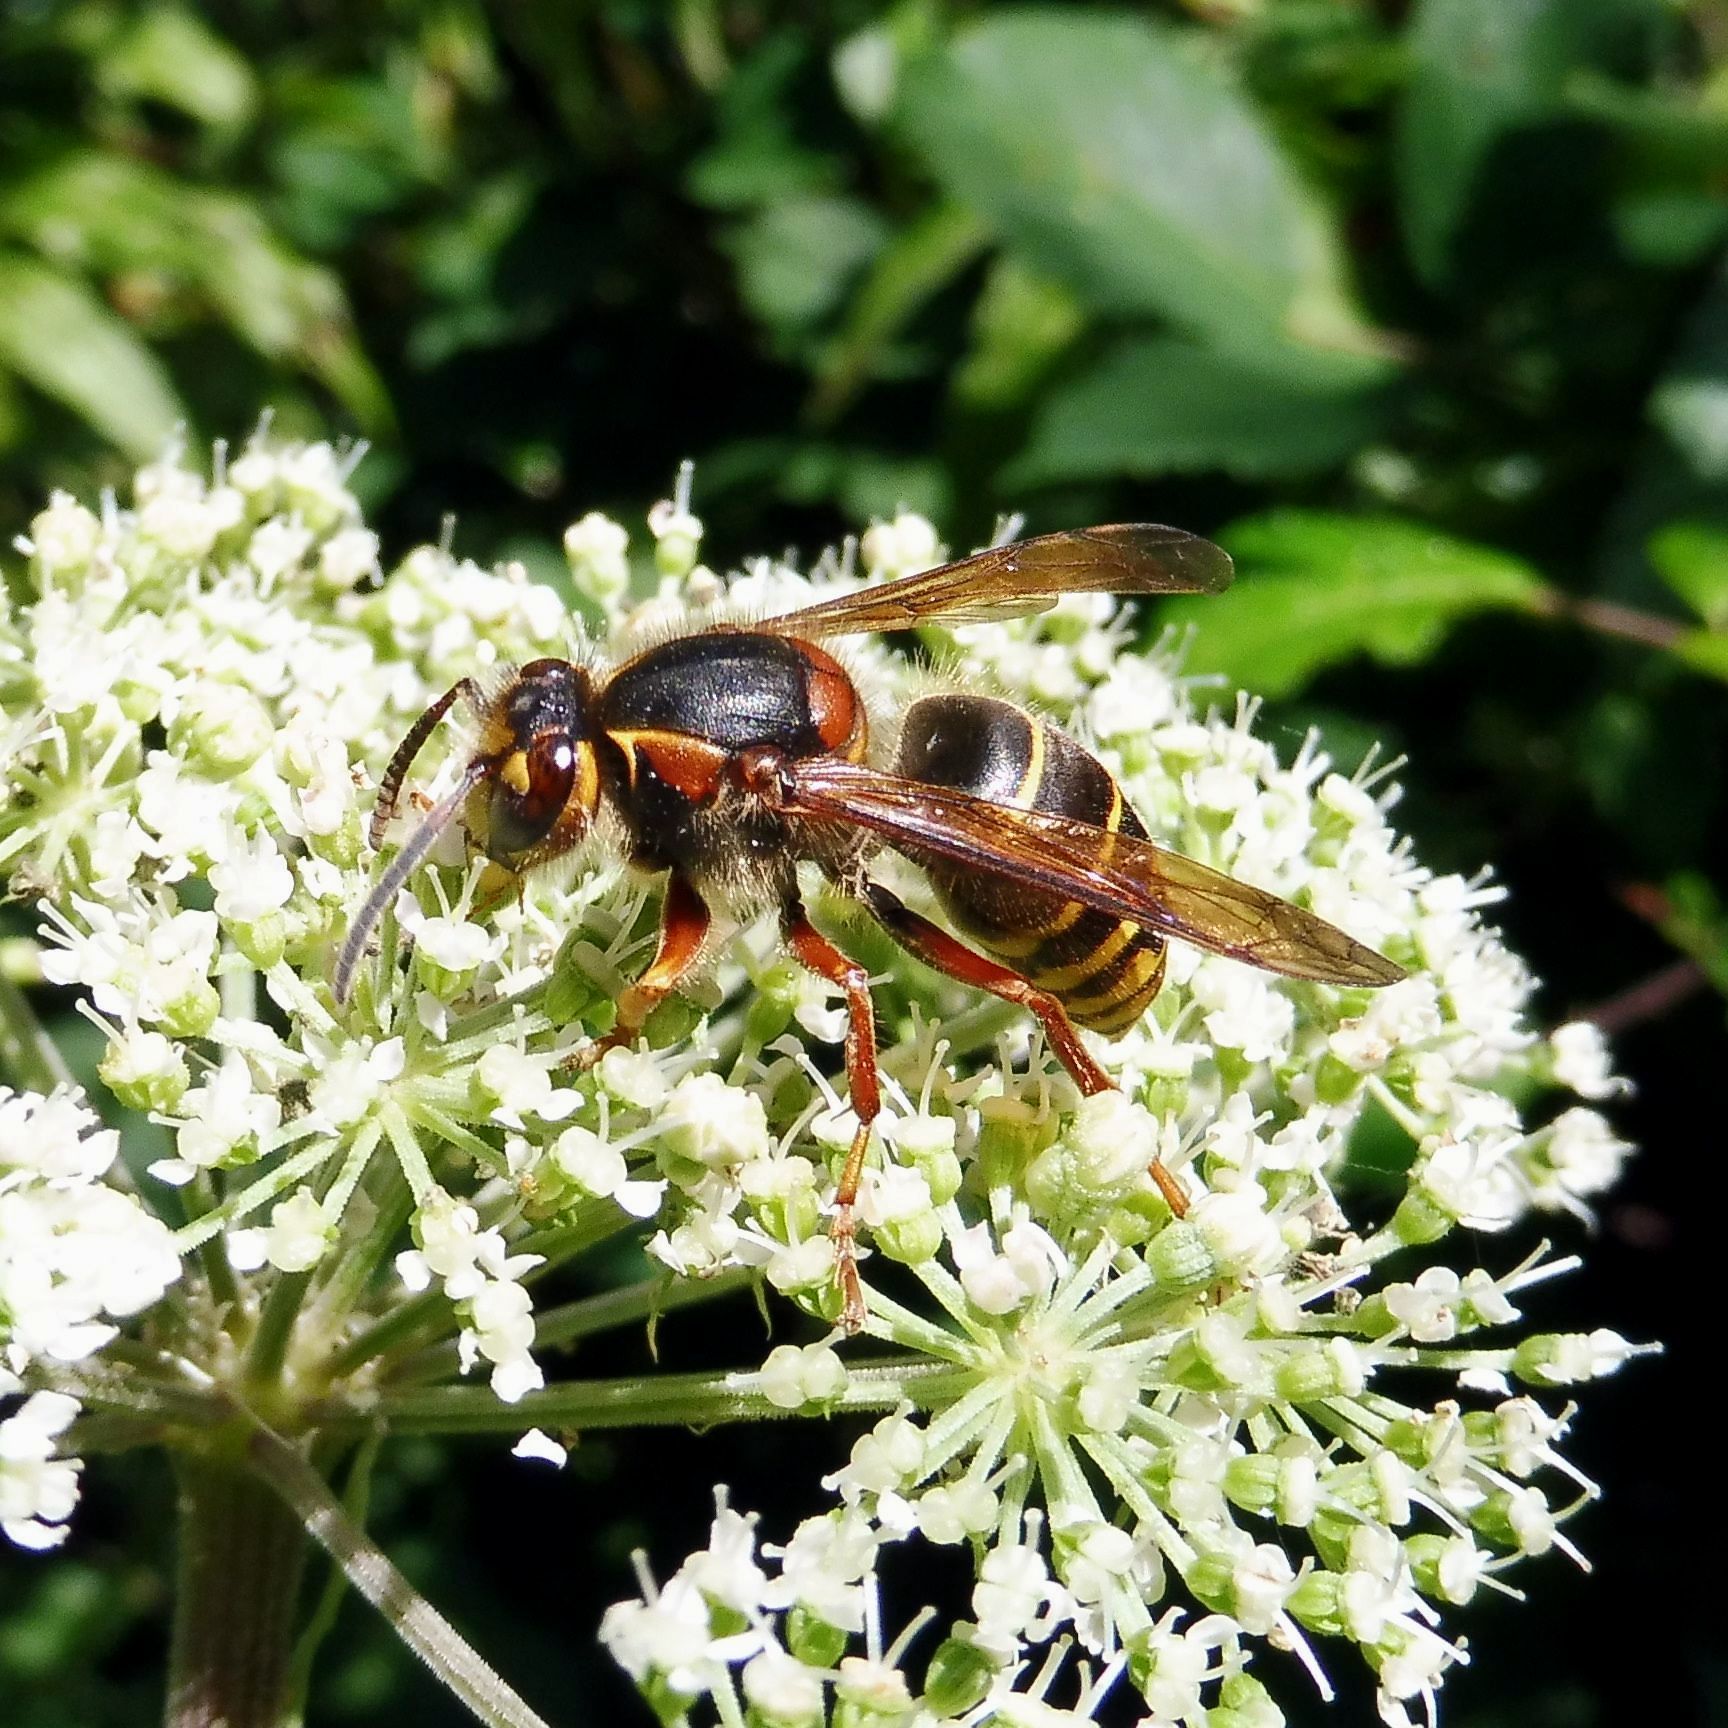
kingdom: Animalia
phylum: Arthropoda
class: Insecta
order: Hymenoptera
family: Vespidae
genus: Dolichovespula
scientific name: Dolichovespula media
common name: Median wasp
